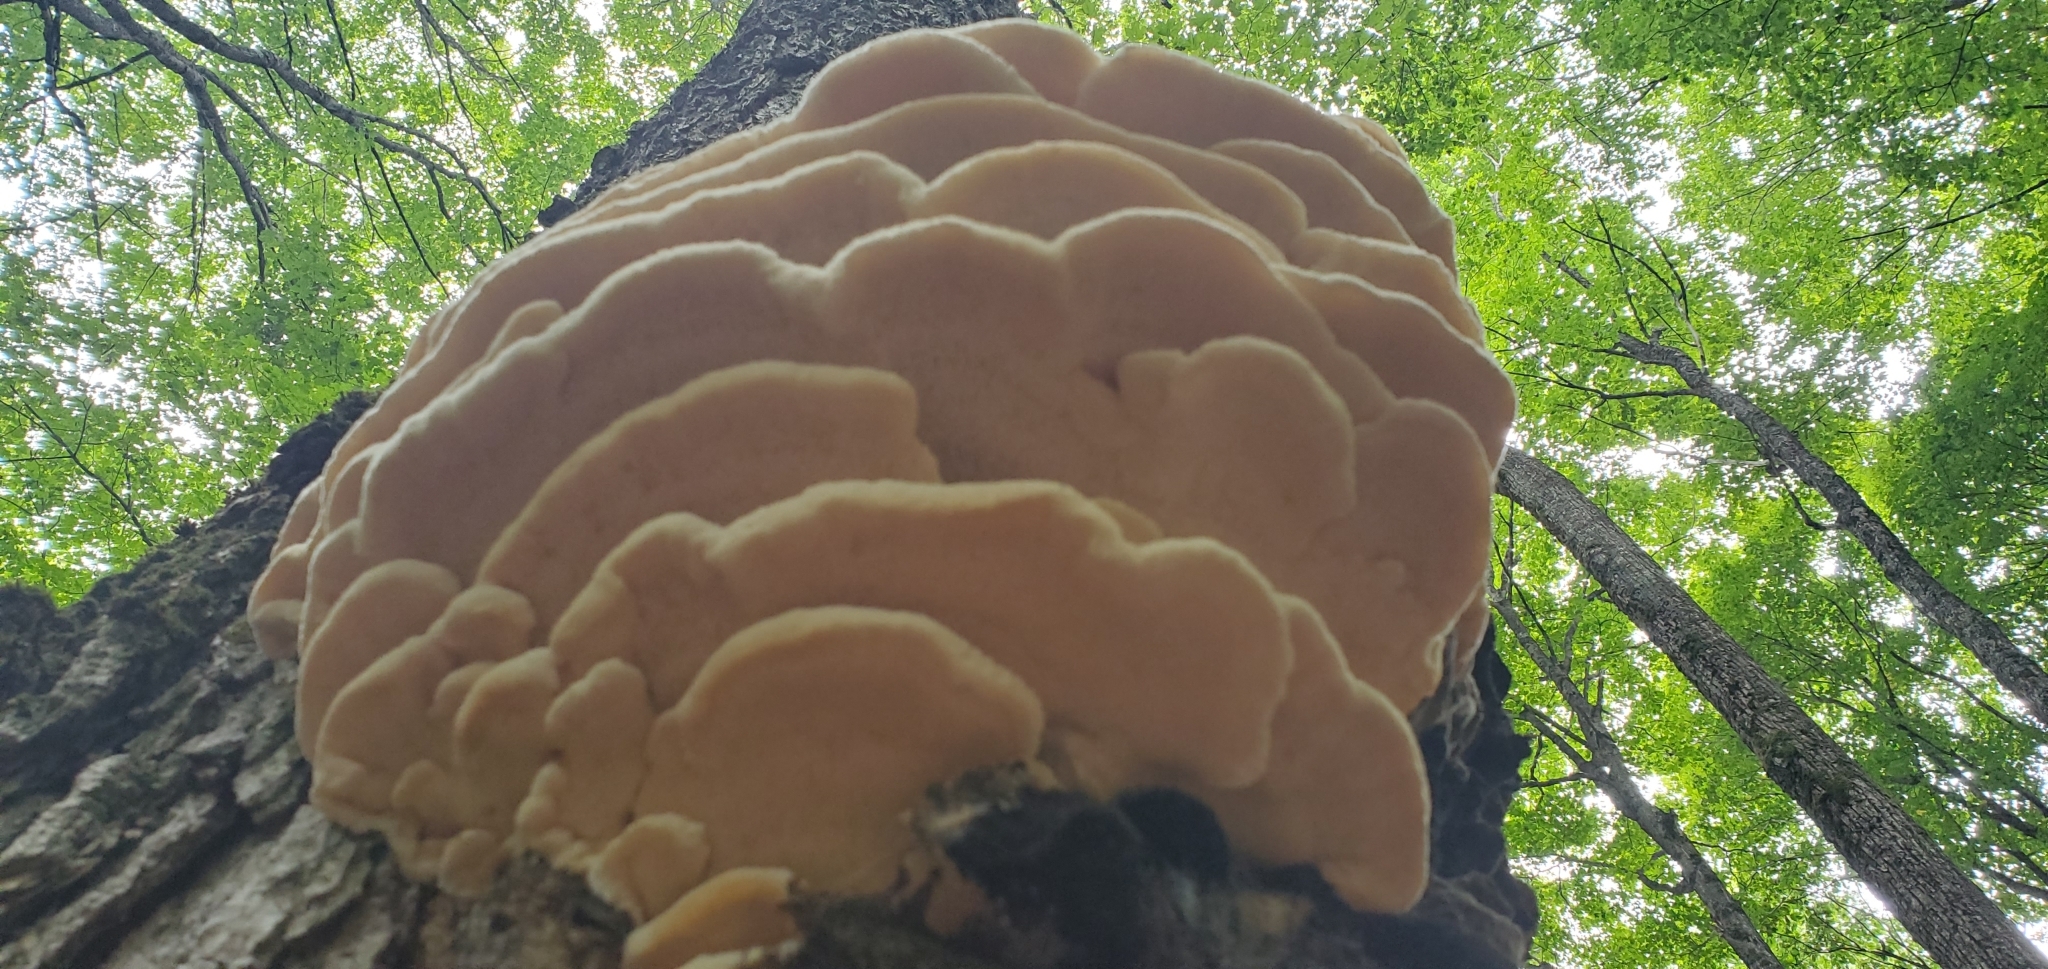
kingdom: Fungi
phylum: Basidiomycota
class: Agaricomycetes
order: Polyporales
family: Meruliaceae
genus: Climacodon
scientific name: Climacodon septentrionalis
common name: Northern tooth
